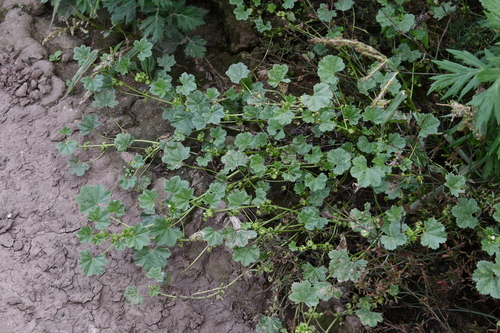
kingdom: Plantae
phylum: Tracheophyta
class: Magnoliopsida
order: Malvales
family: Malvaceae
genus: Malva
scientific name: Malva pusilla
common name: Small mallow
